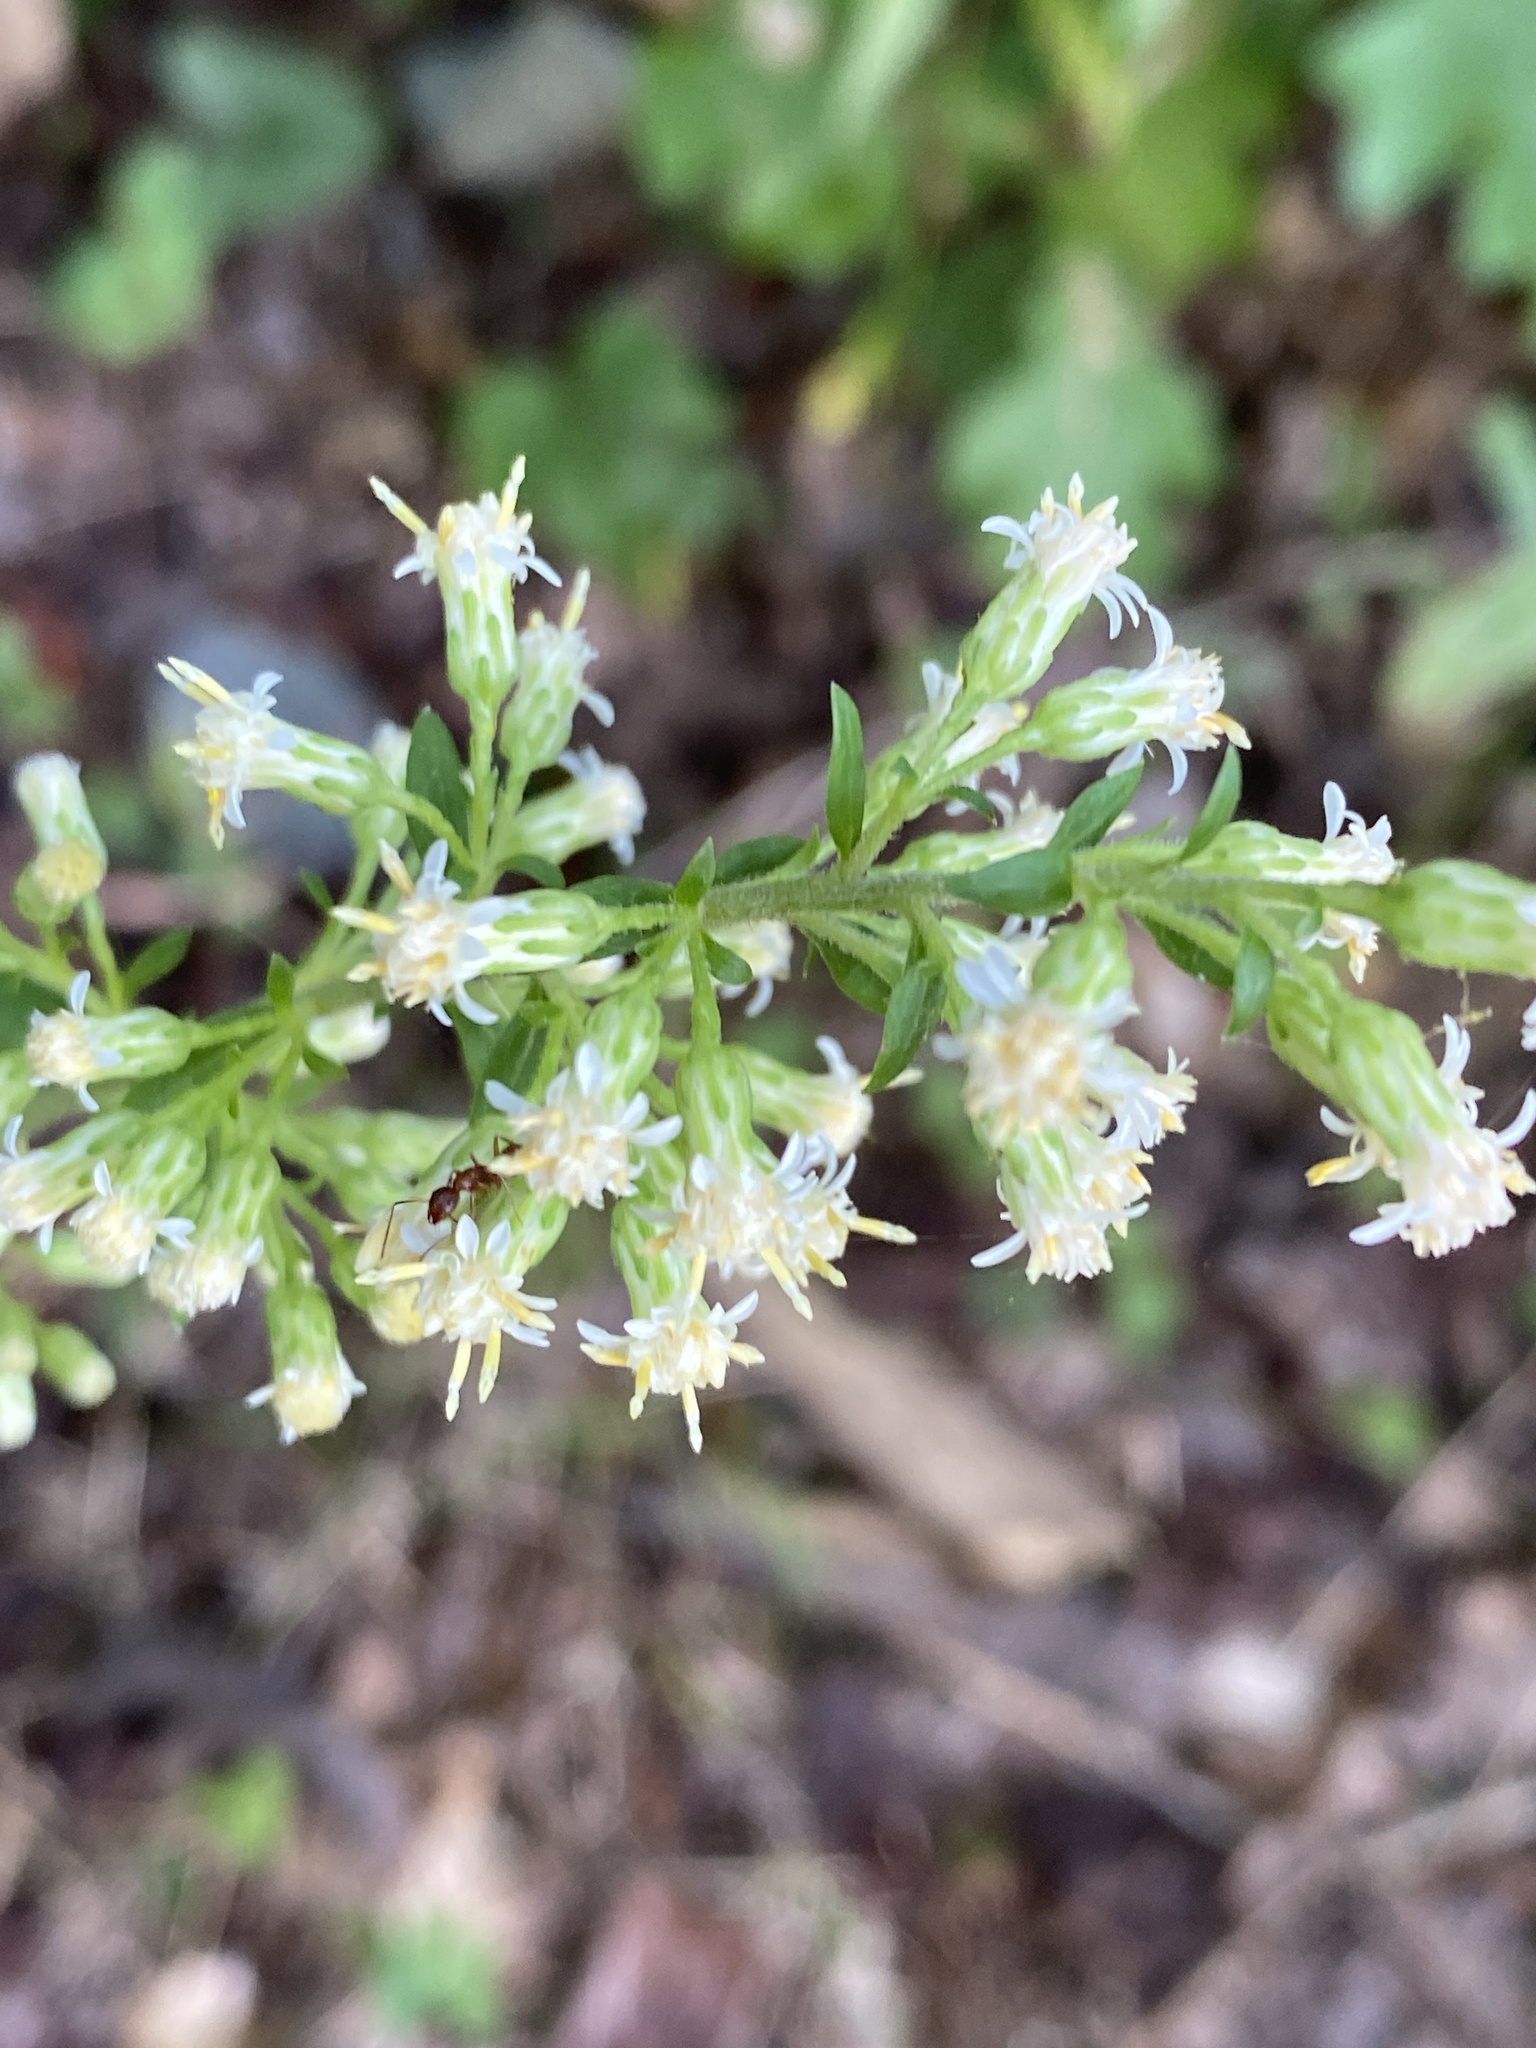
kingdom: Plantae
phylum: Tracheophyta
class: Magnoliopsida
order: Asterales
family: Asteraceae
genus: Solidago
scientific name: Solidago bicolor
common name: Silverrod
